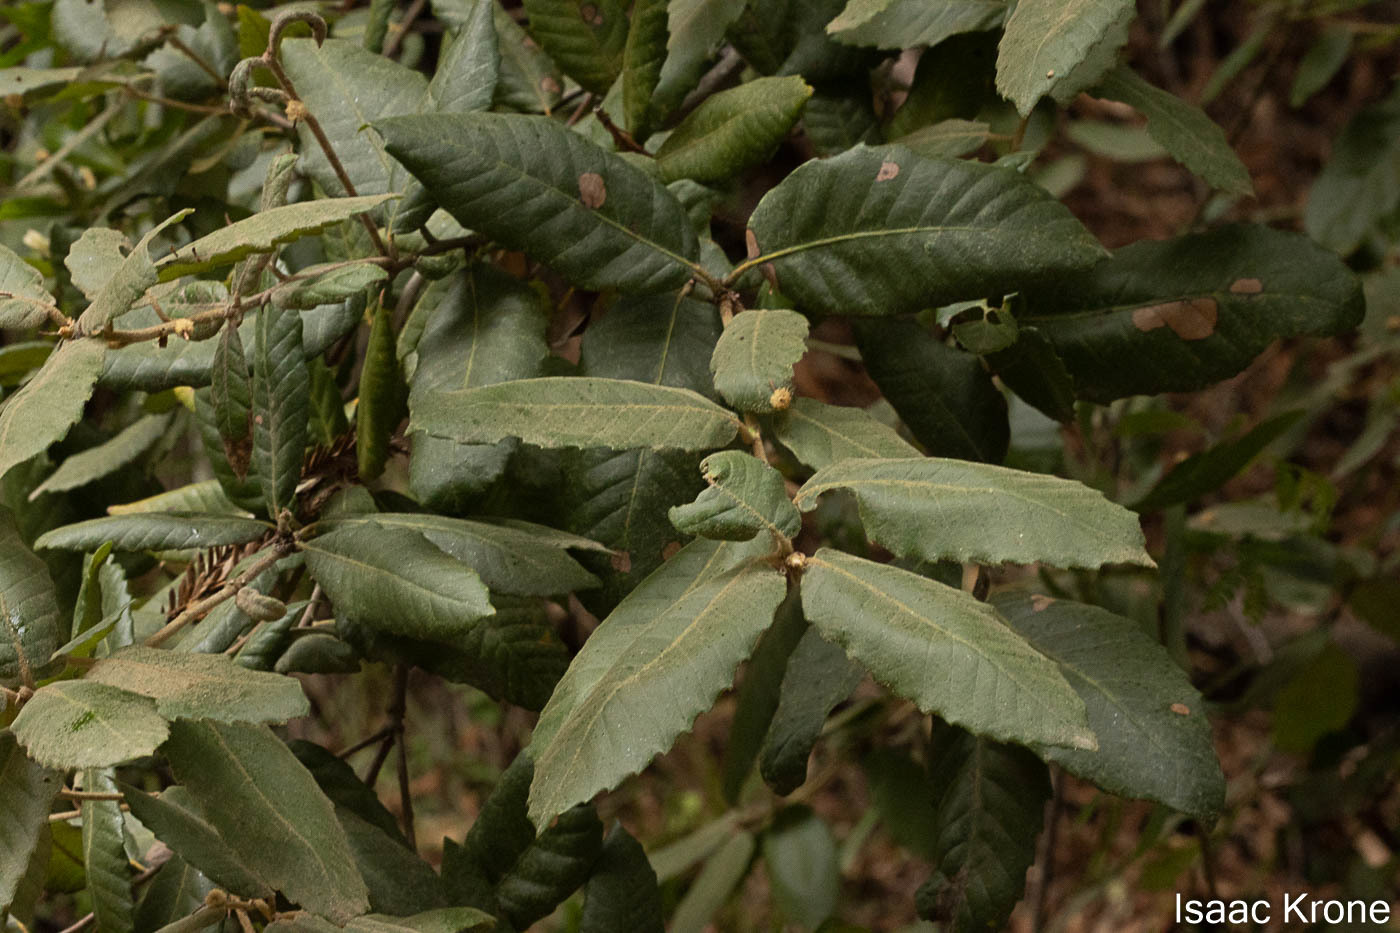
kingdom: Plantae
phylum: Tracheophyta
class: Magnoliopsida
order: Fagales
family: Fagaceae
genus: Notholithocarpus
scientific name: Notholithocarpus densiflorus
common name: Tan bark oak
